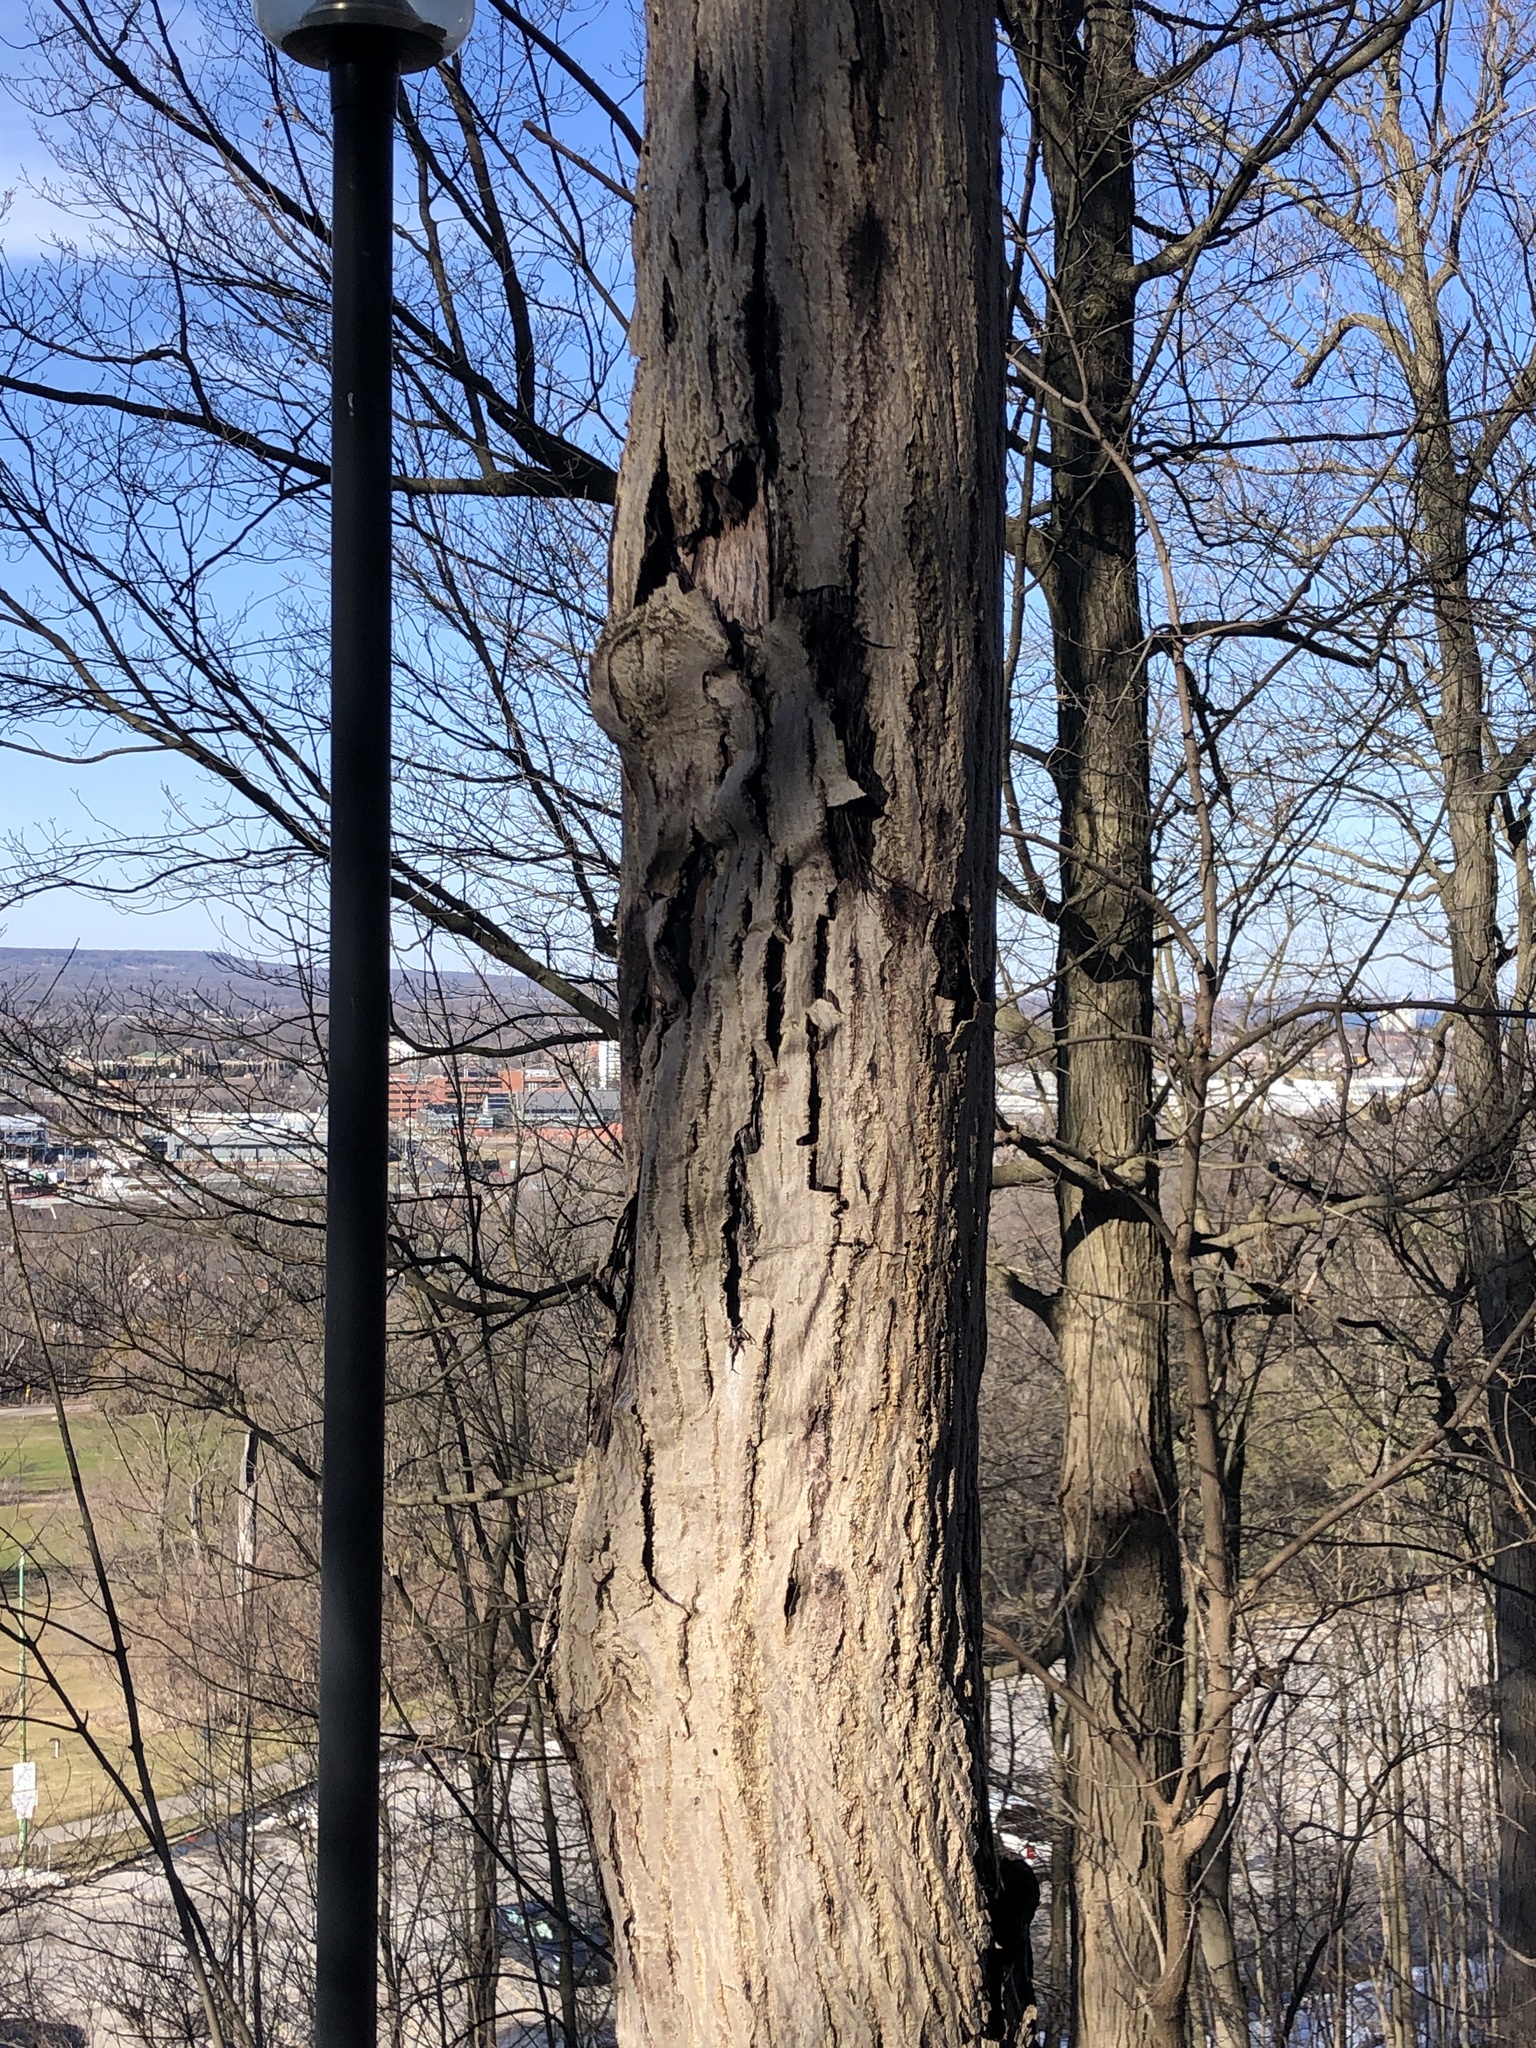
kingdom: Plantae
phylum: Tracheophyta
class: Magnoliopsida
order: Fagales
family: Juglandaceae
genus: Juglans
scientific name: Juglans cinerea
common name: Butternut
